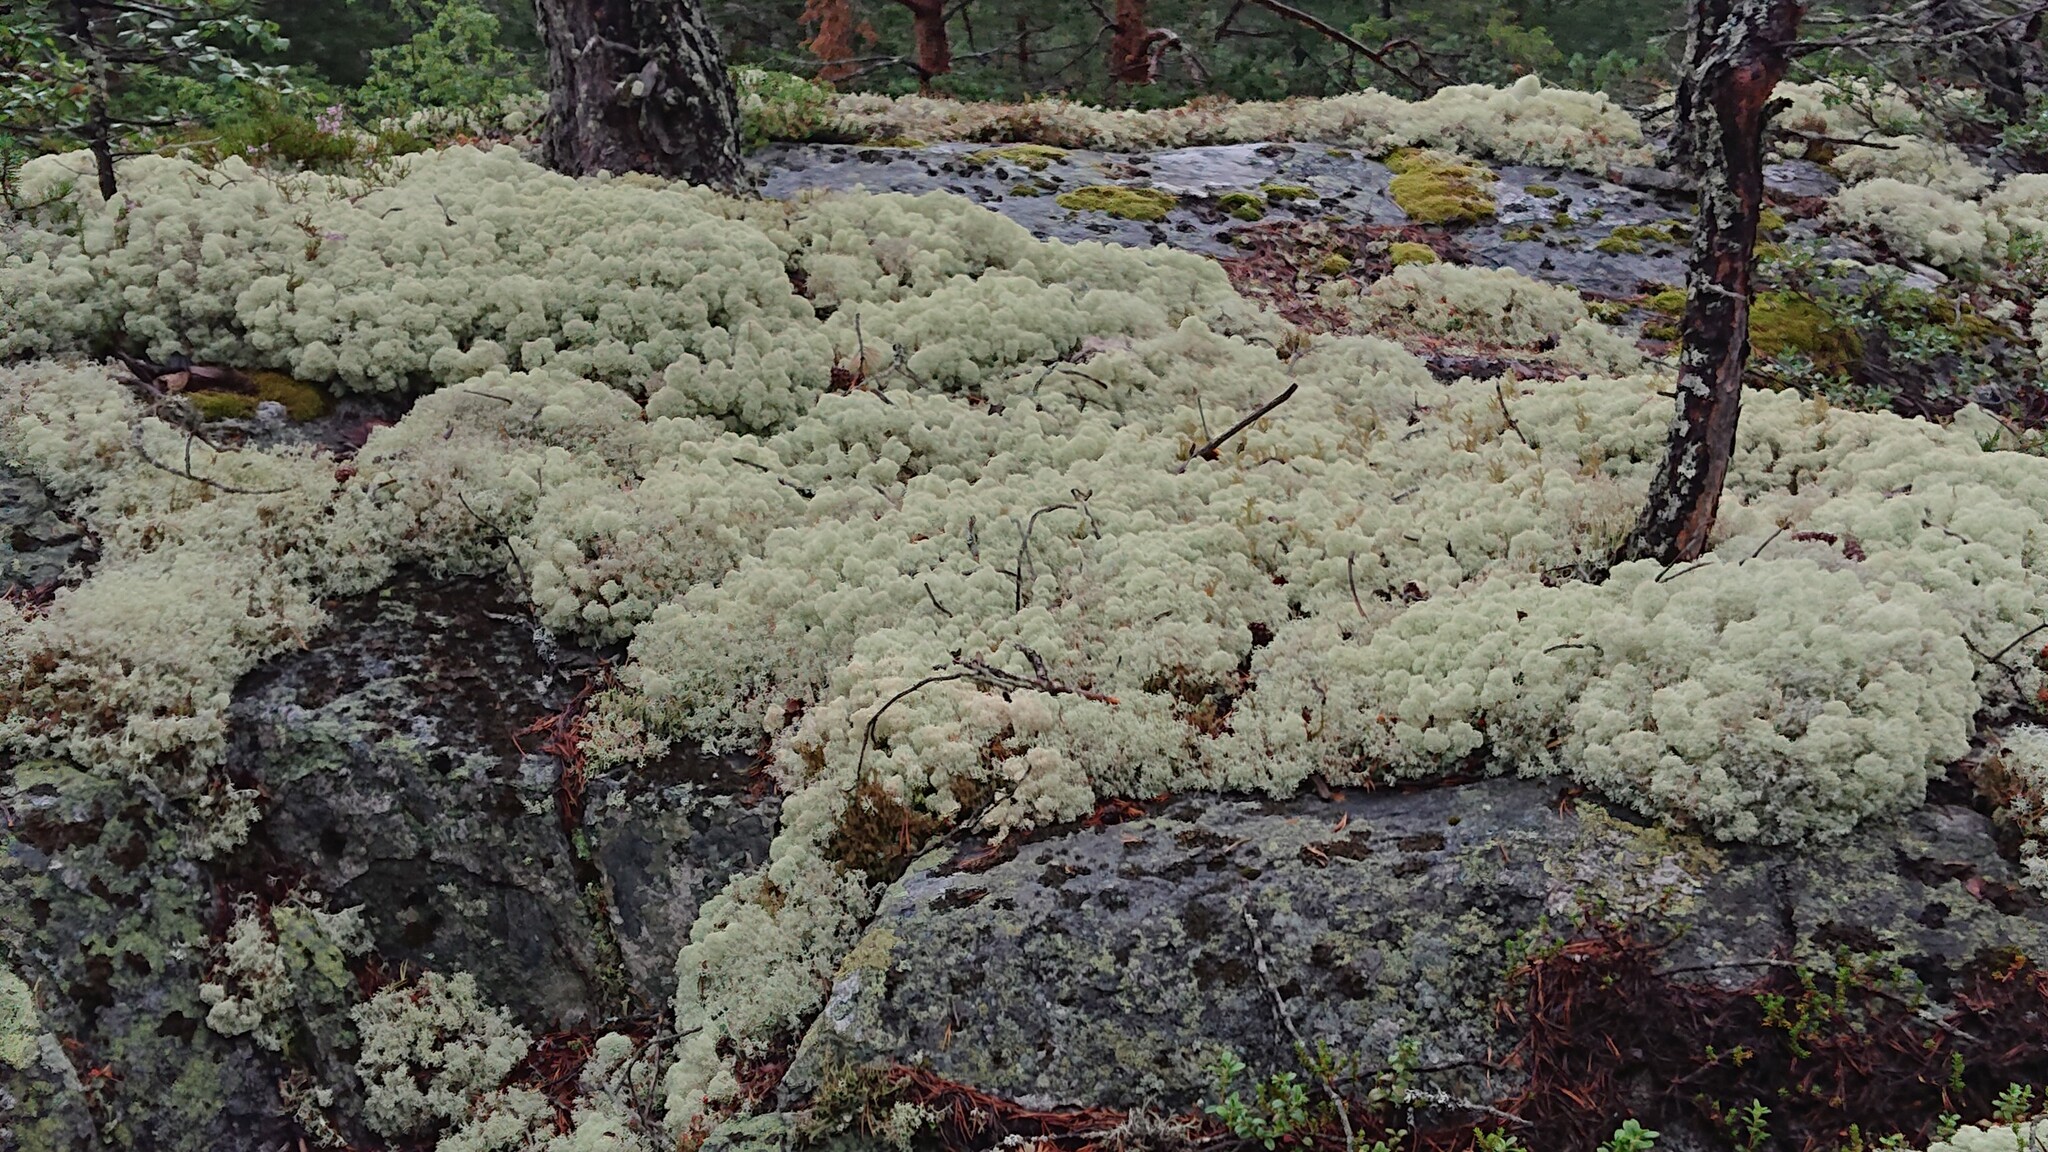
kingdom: Fungi
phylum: Ascomycota
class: Lecanoromycetes
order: Lecanorales
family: Cladoniaceae
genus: Cladonia
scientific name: Cladonia stellaris
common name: Star-tipped reindeer lichen
